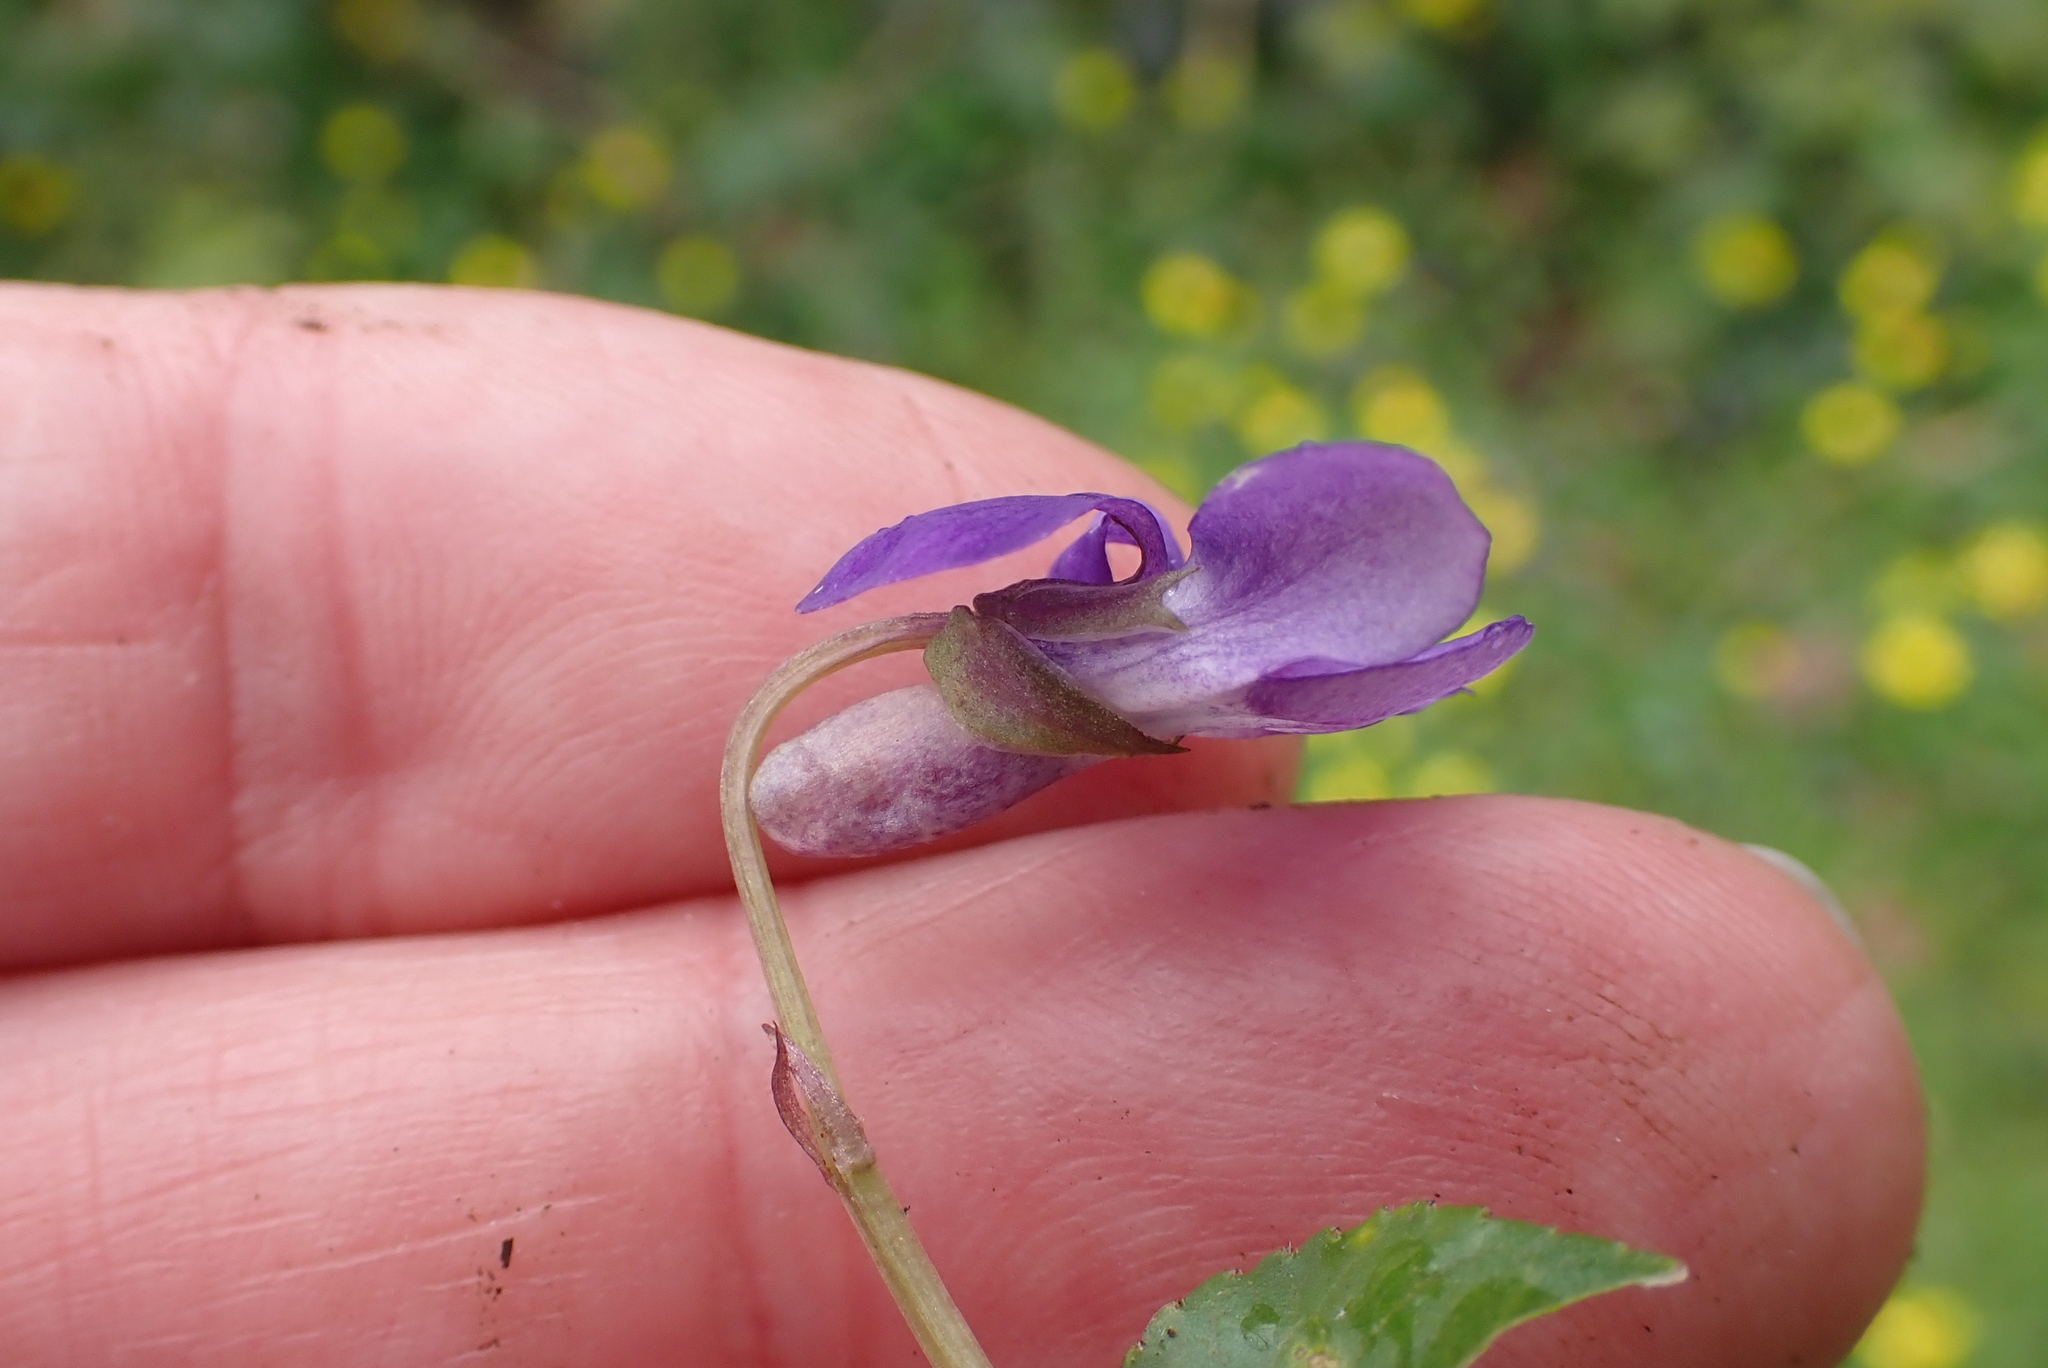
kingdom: Plantae
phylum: Tracheophyta
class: Magnoliopsida
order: Malpighiales
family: Violaceae
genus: Viola
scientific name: Viola riviniana
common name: Common dog-violet
